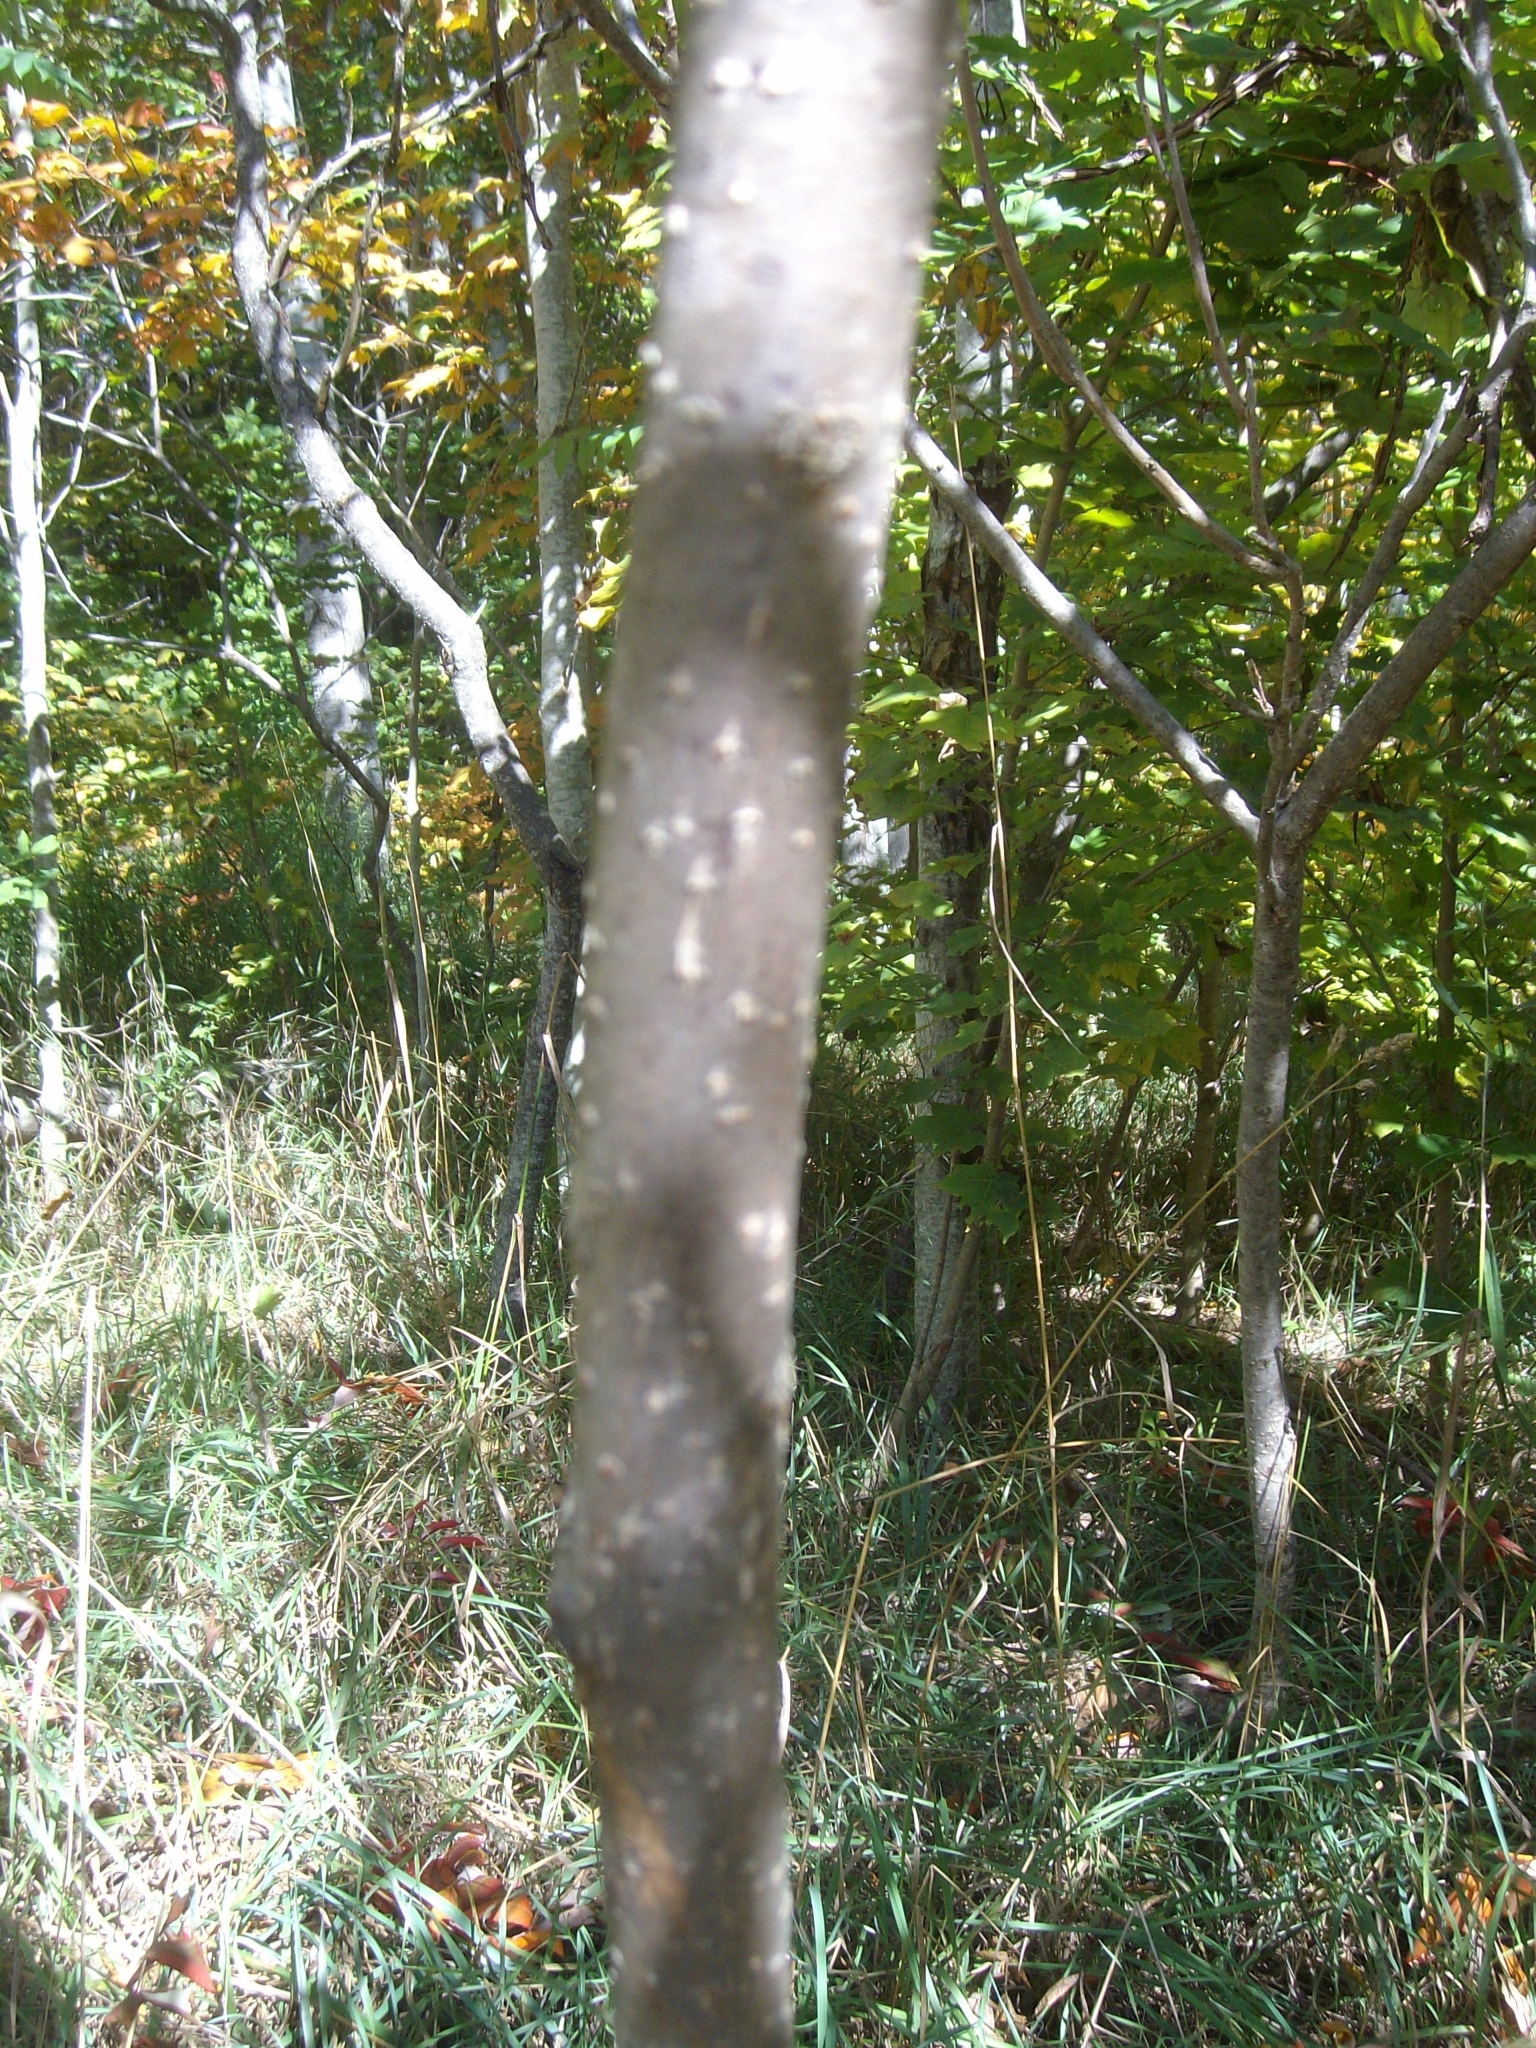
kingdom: Plantae
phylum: Tracheophyta
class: Magnoliopsida
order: Sapindales
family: Anacardiaceae
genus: Rhus
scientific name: Rhus glabra
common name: Scarlet sumac
